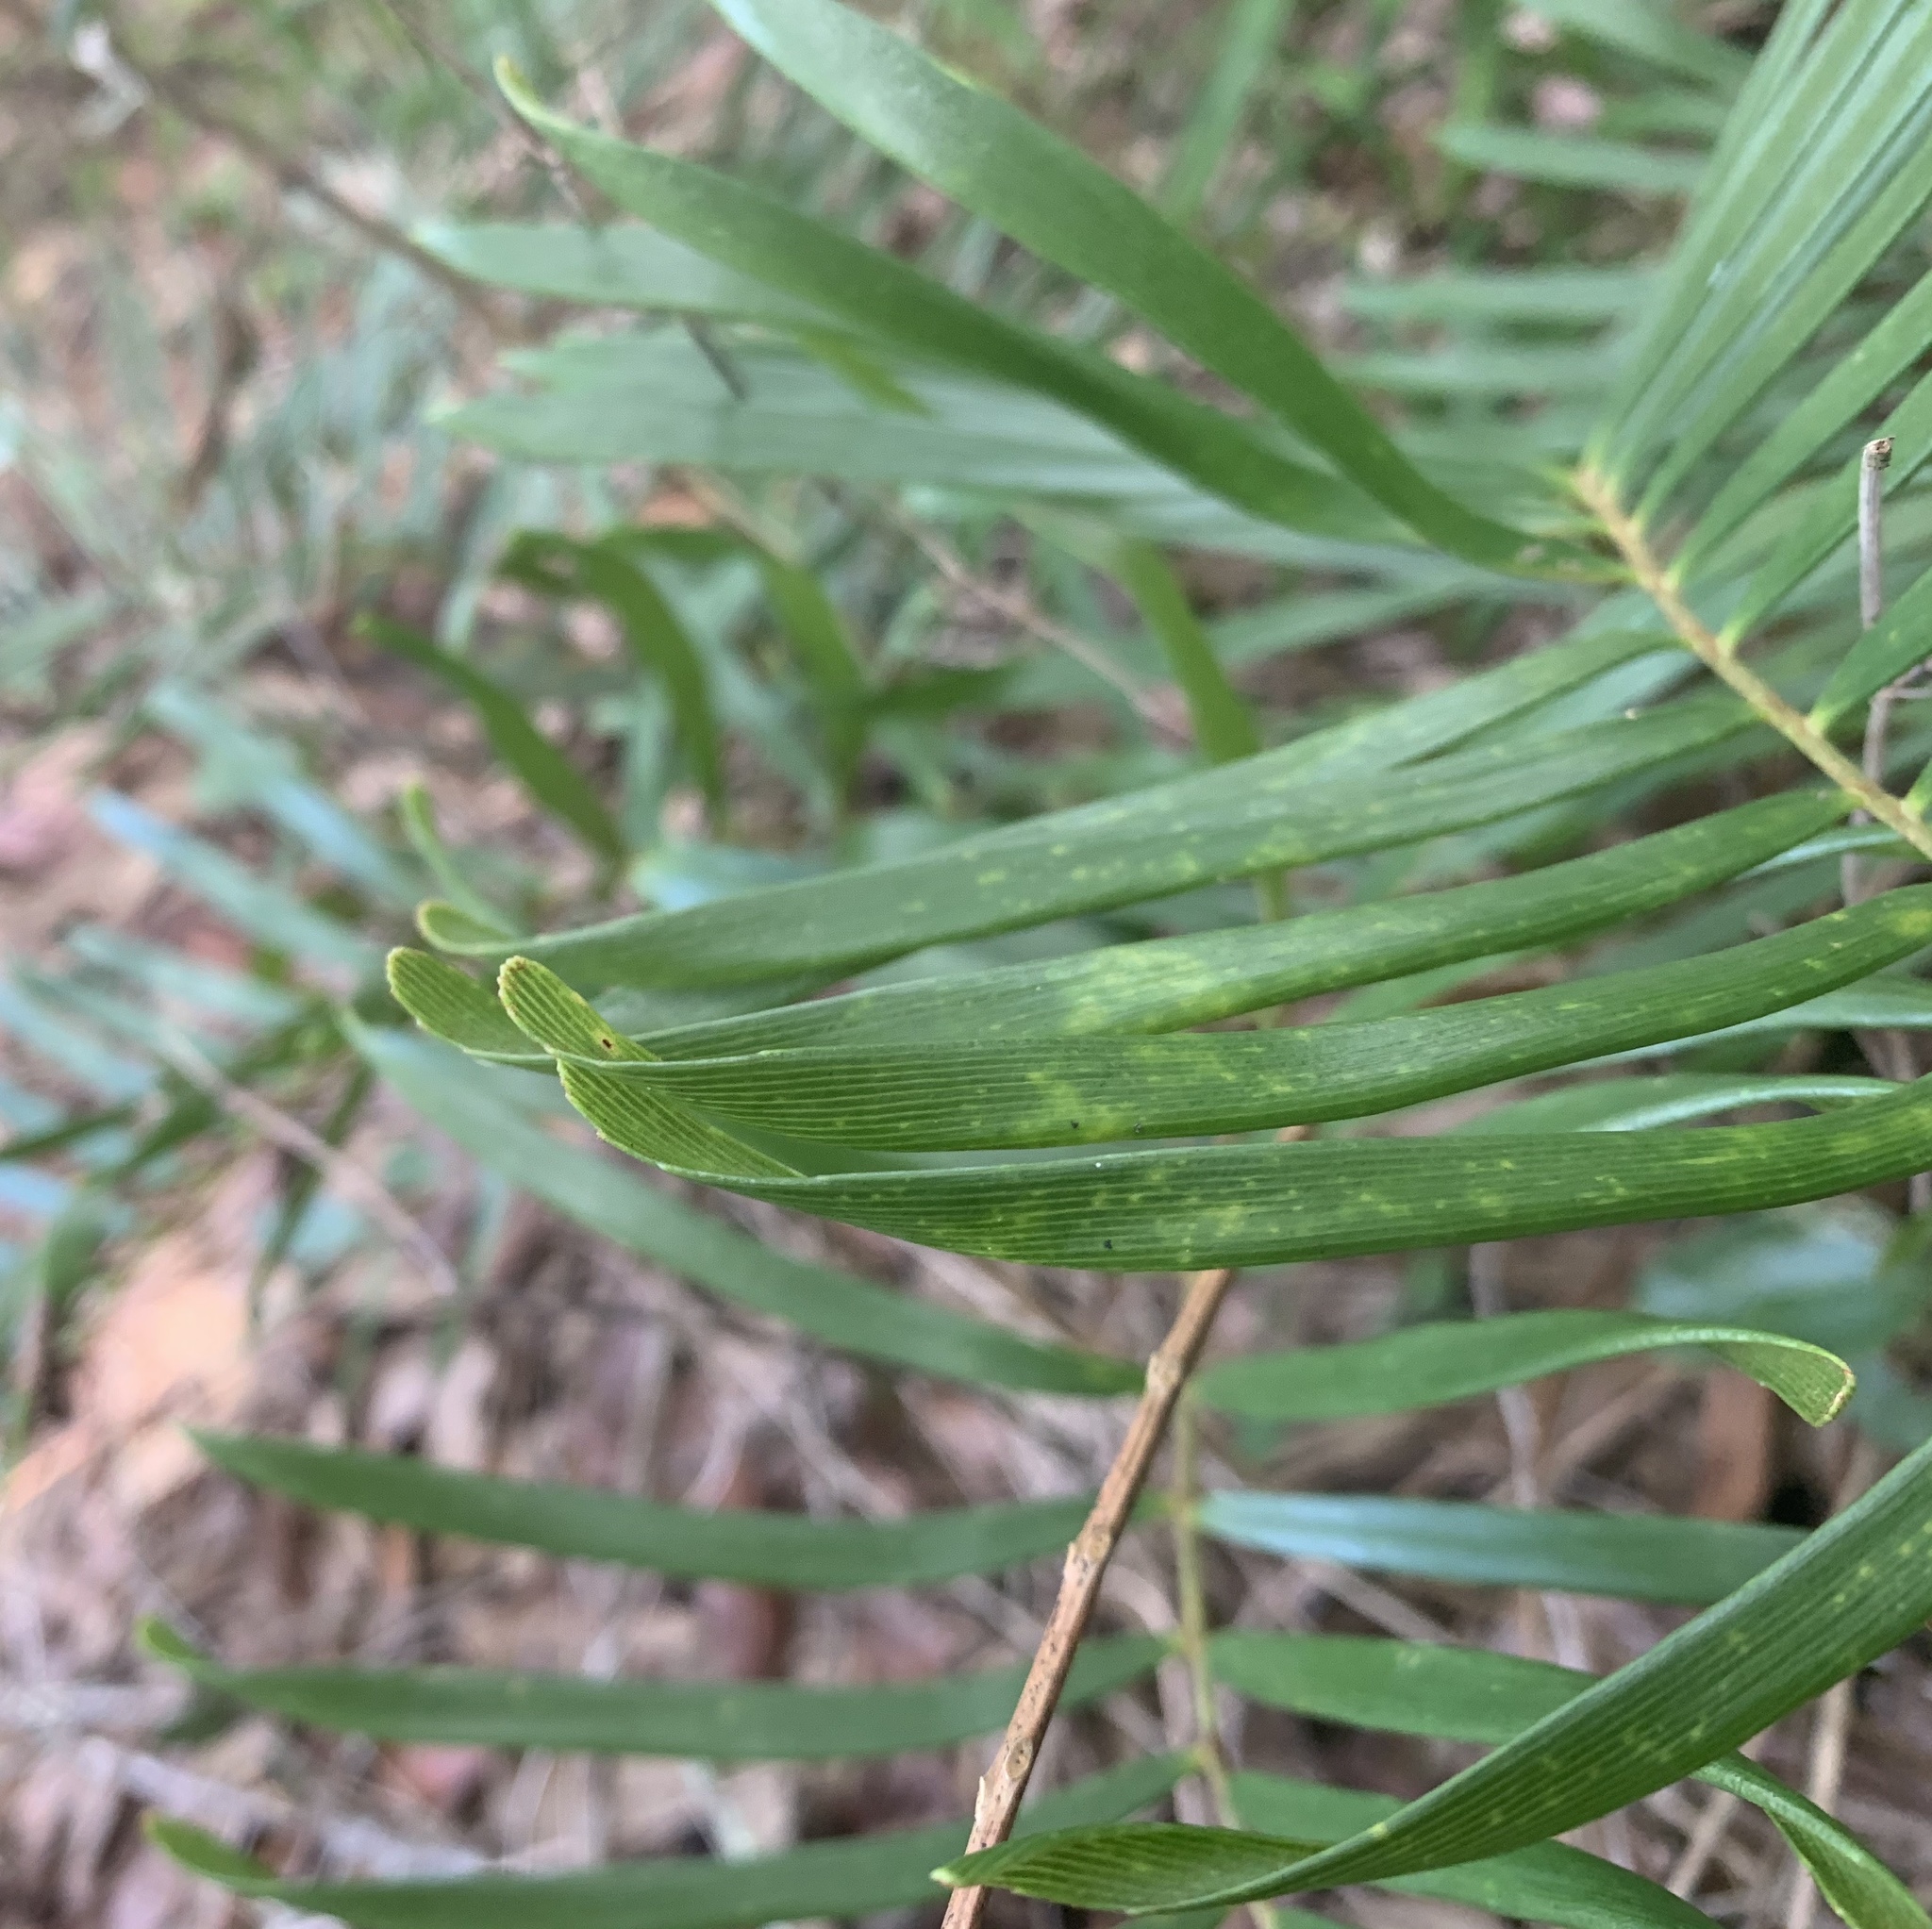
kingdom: Plantae
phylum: Tracheophyta
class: Cycadopsida
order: Cycadales
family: Zamiaceae
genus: Zamia
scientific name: Zamia integrifolia
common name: Florida arrowroot
